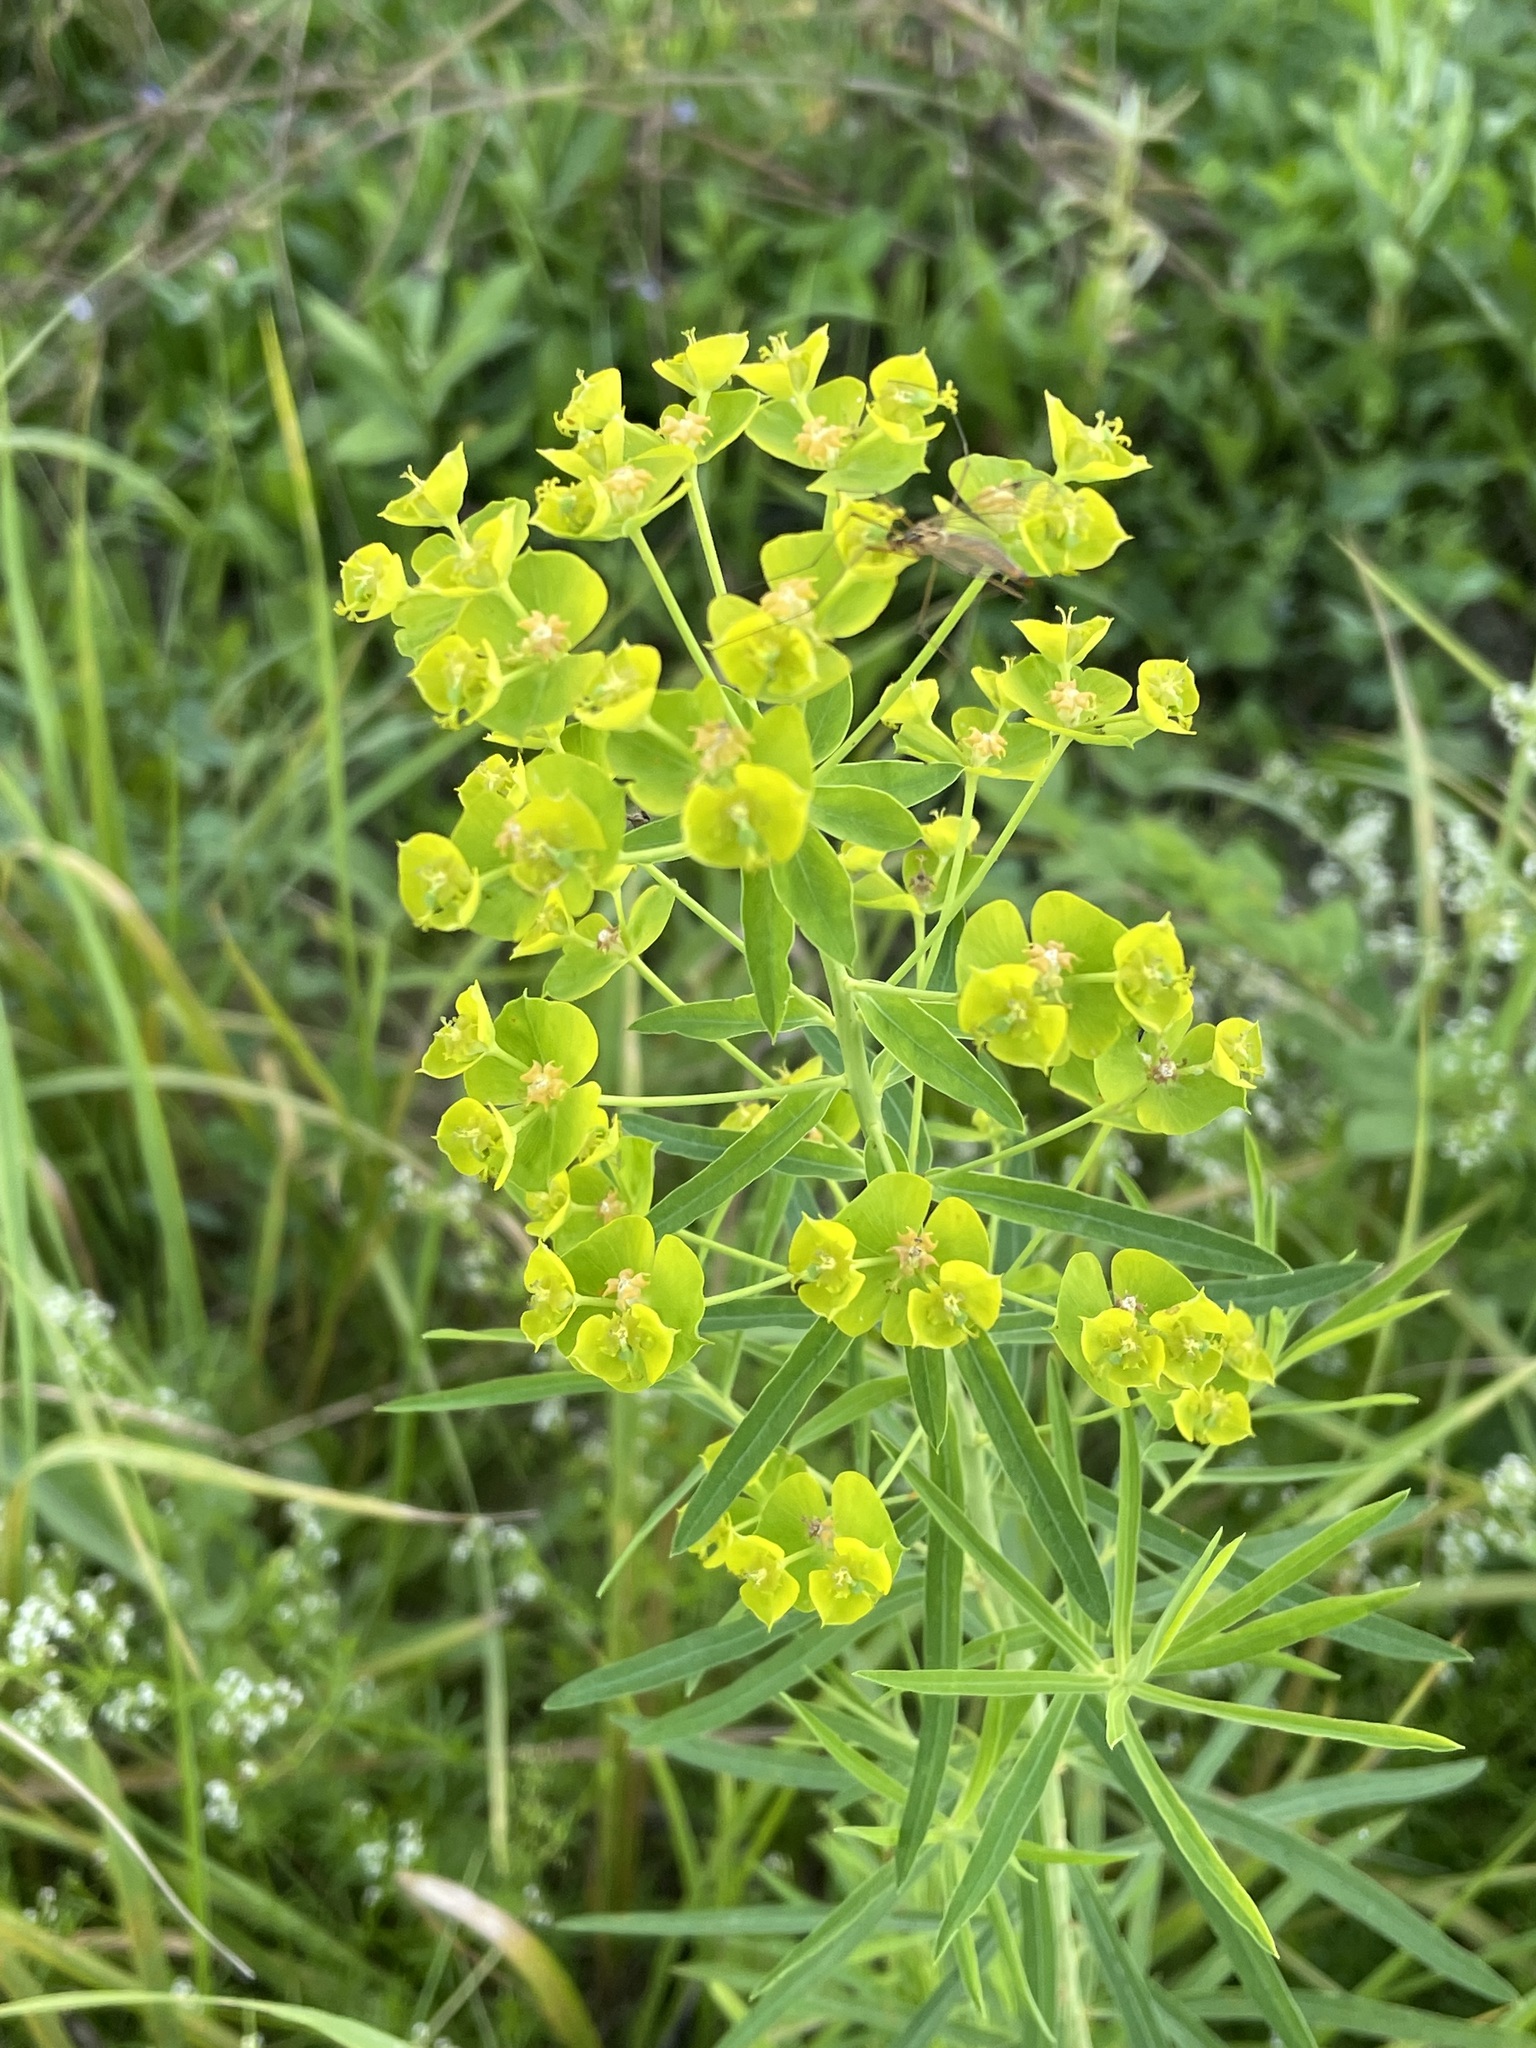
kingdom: Plantae
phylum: Tracheophyta
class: Magnoliopsida
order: Malpighiales
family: Euphorbiaceae
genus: Euphorbia
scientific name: Euphorbia virgata
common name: Leafy spurge
